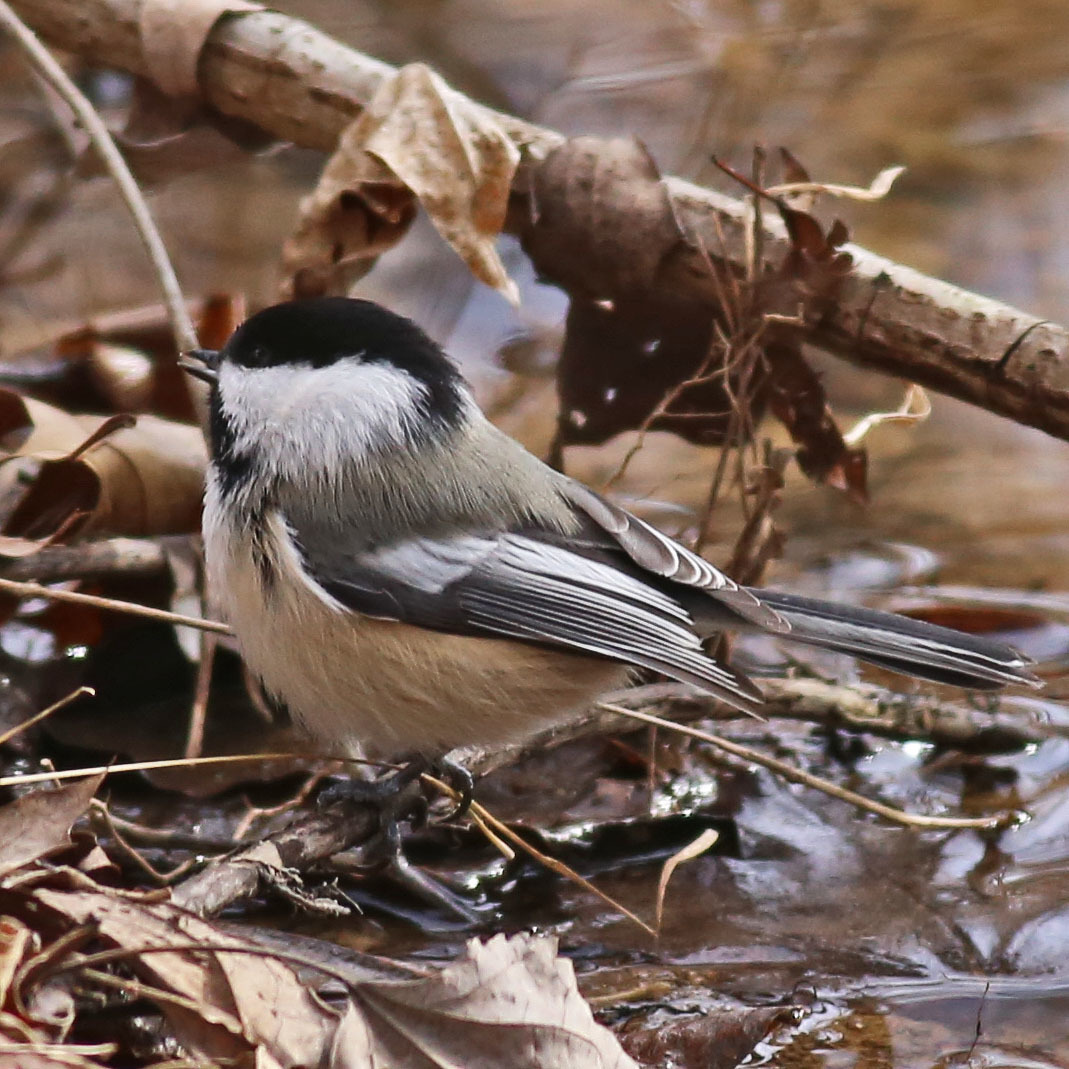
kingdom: Animalia
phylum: Chordata
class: Aves
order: Passeriformes
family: Paridae
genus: Poecile
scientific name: Poecile atricapillus
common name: Black-capped chickadee
